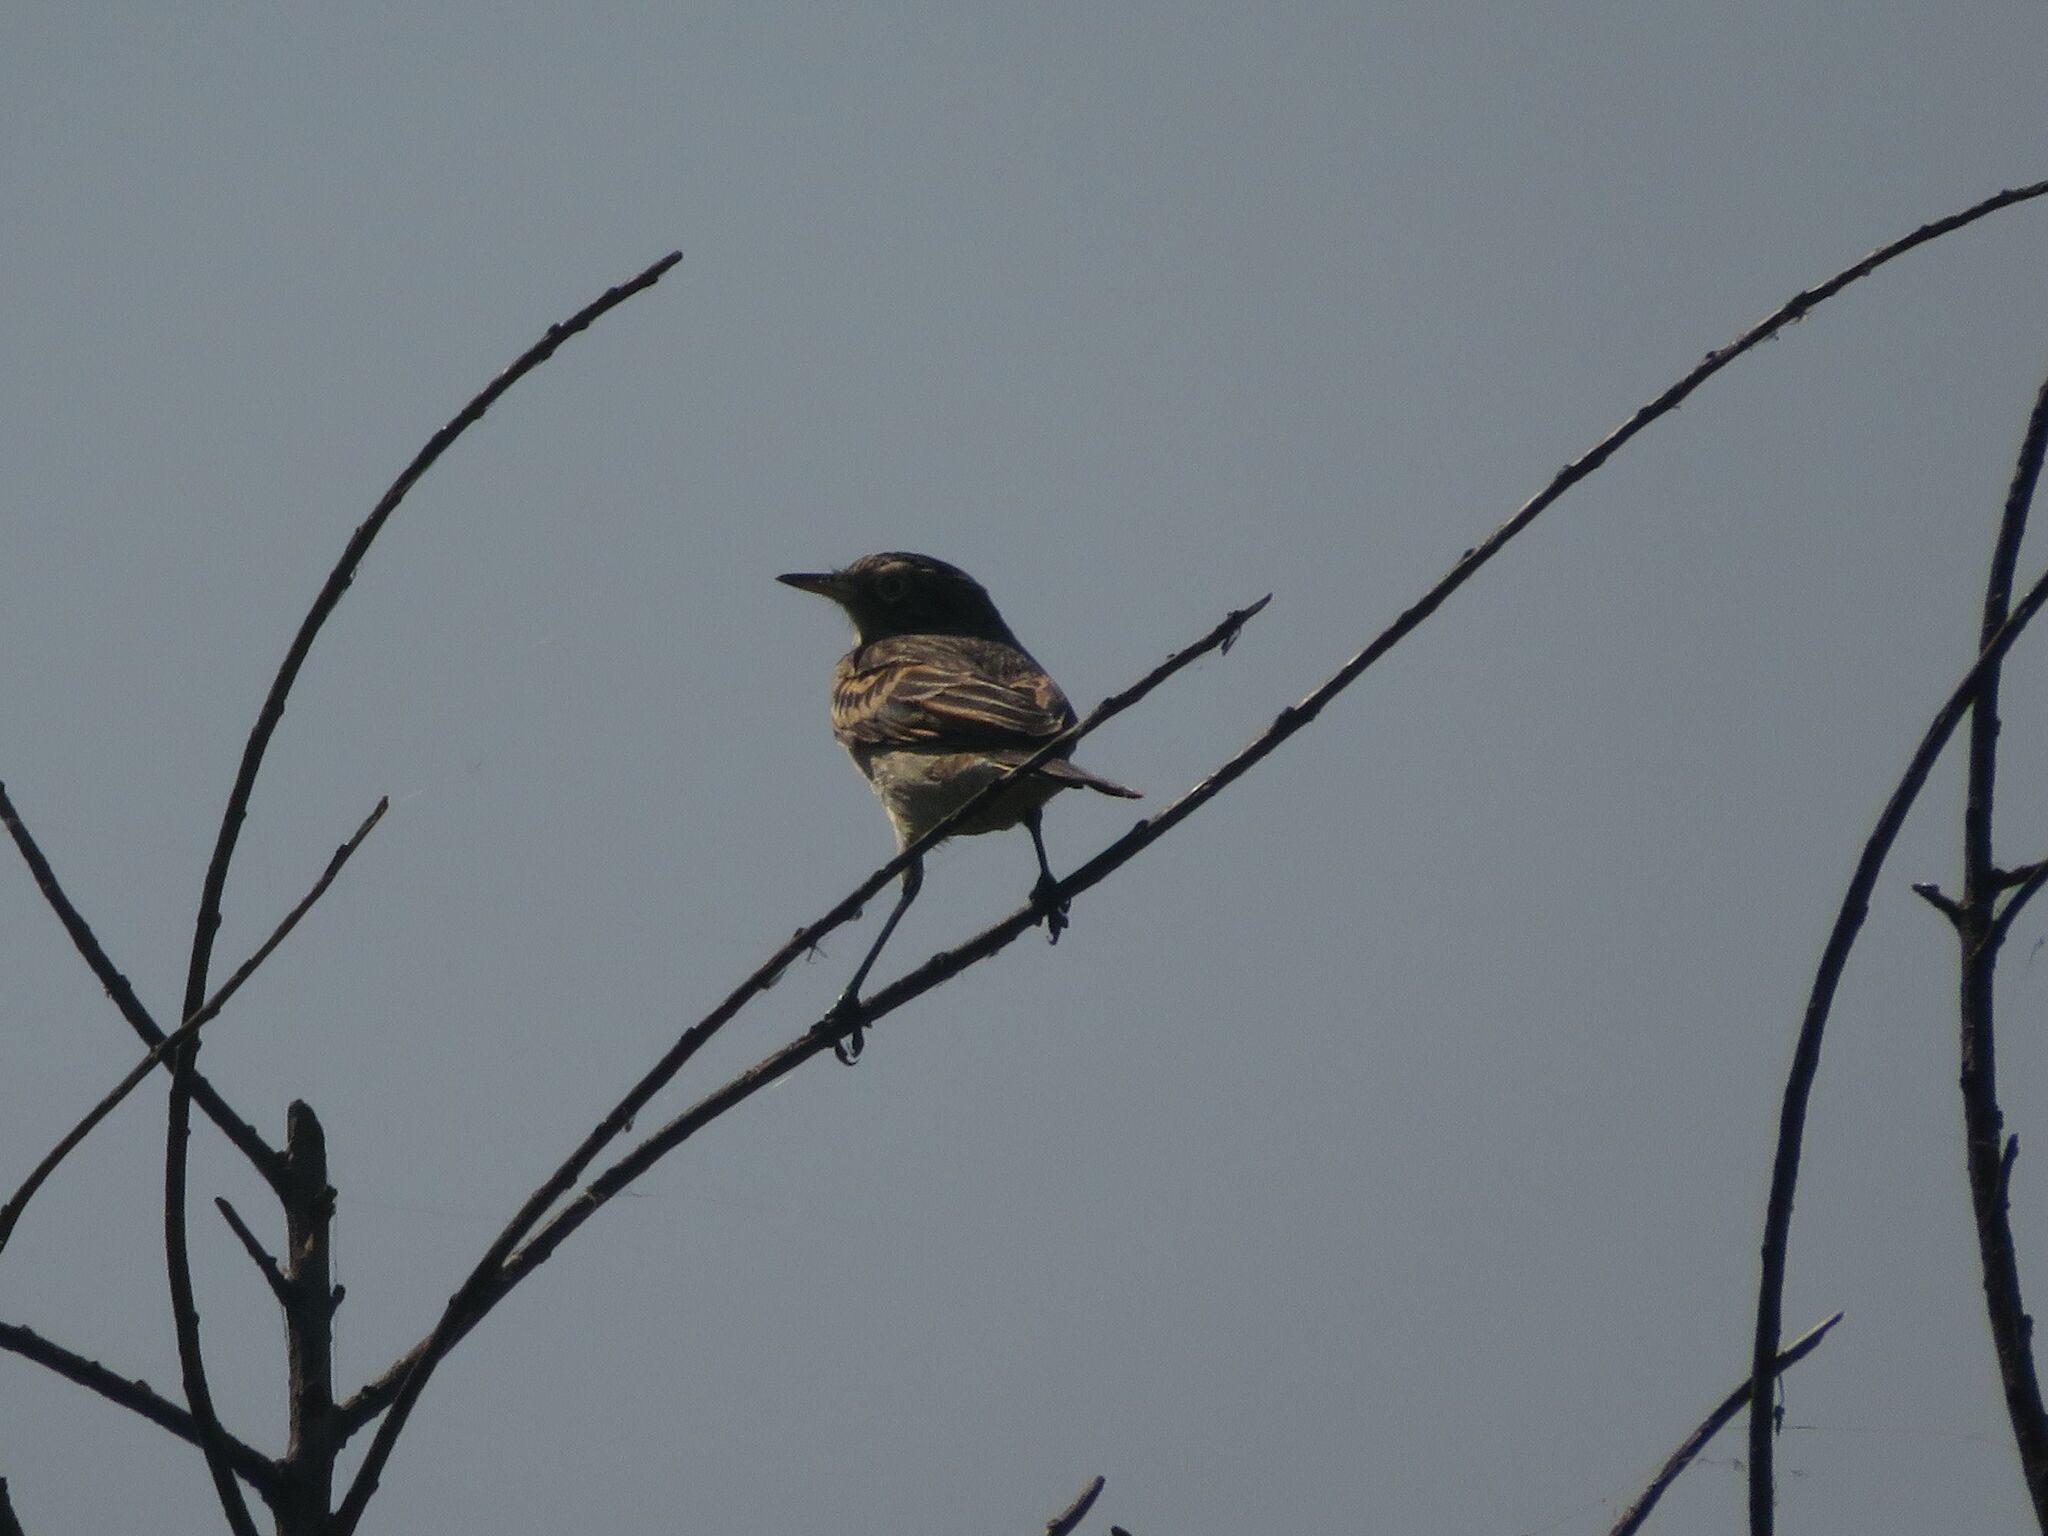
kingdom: Animalia
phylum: Chordata
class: Aves
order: Passeriformes
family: Tyrannidae
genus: Hymenops
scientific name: Hymenops perspicillatus
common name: Spectacled tyrant
